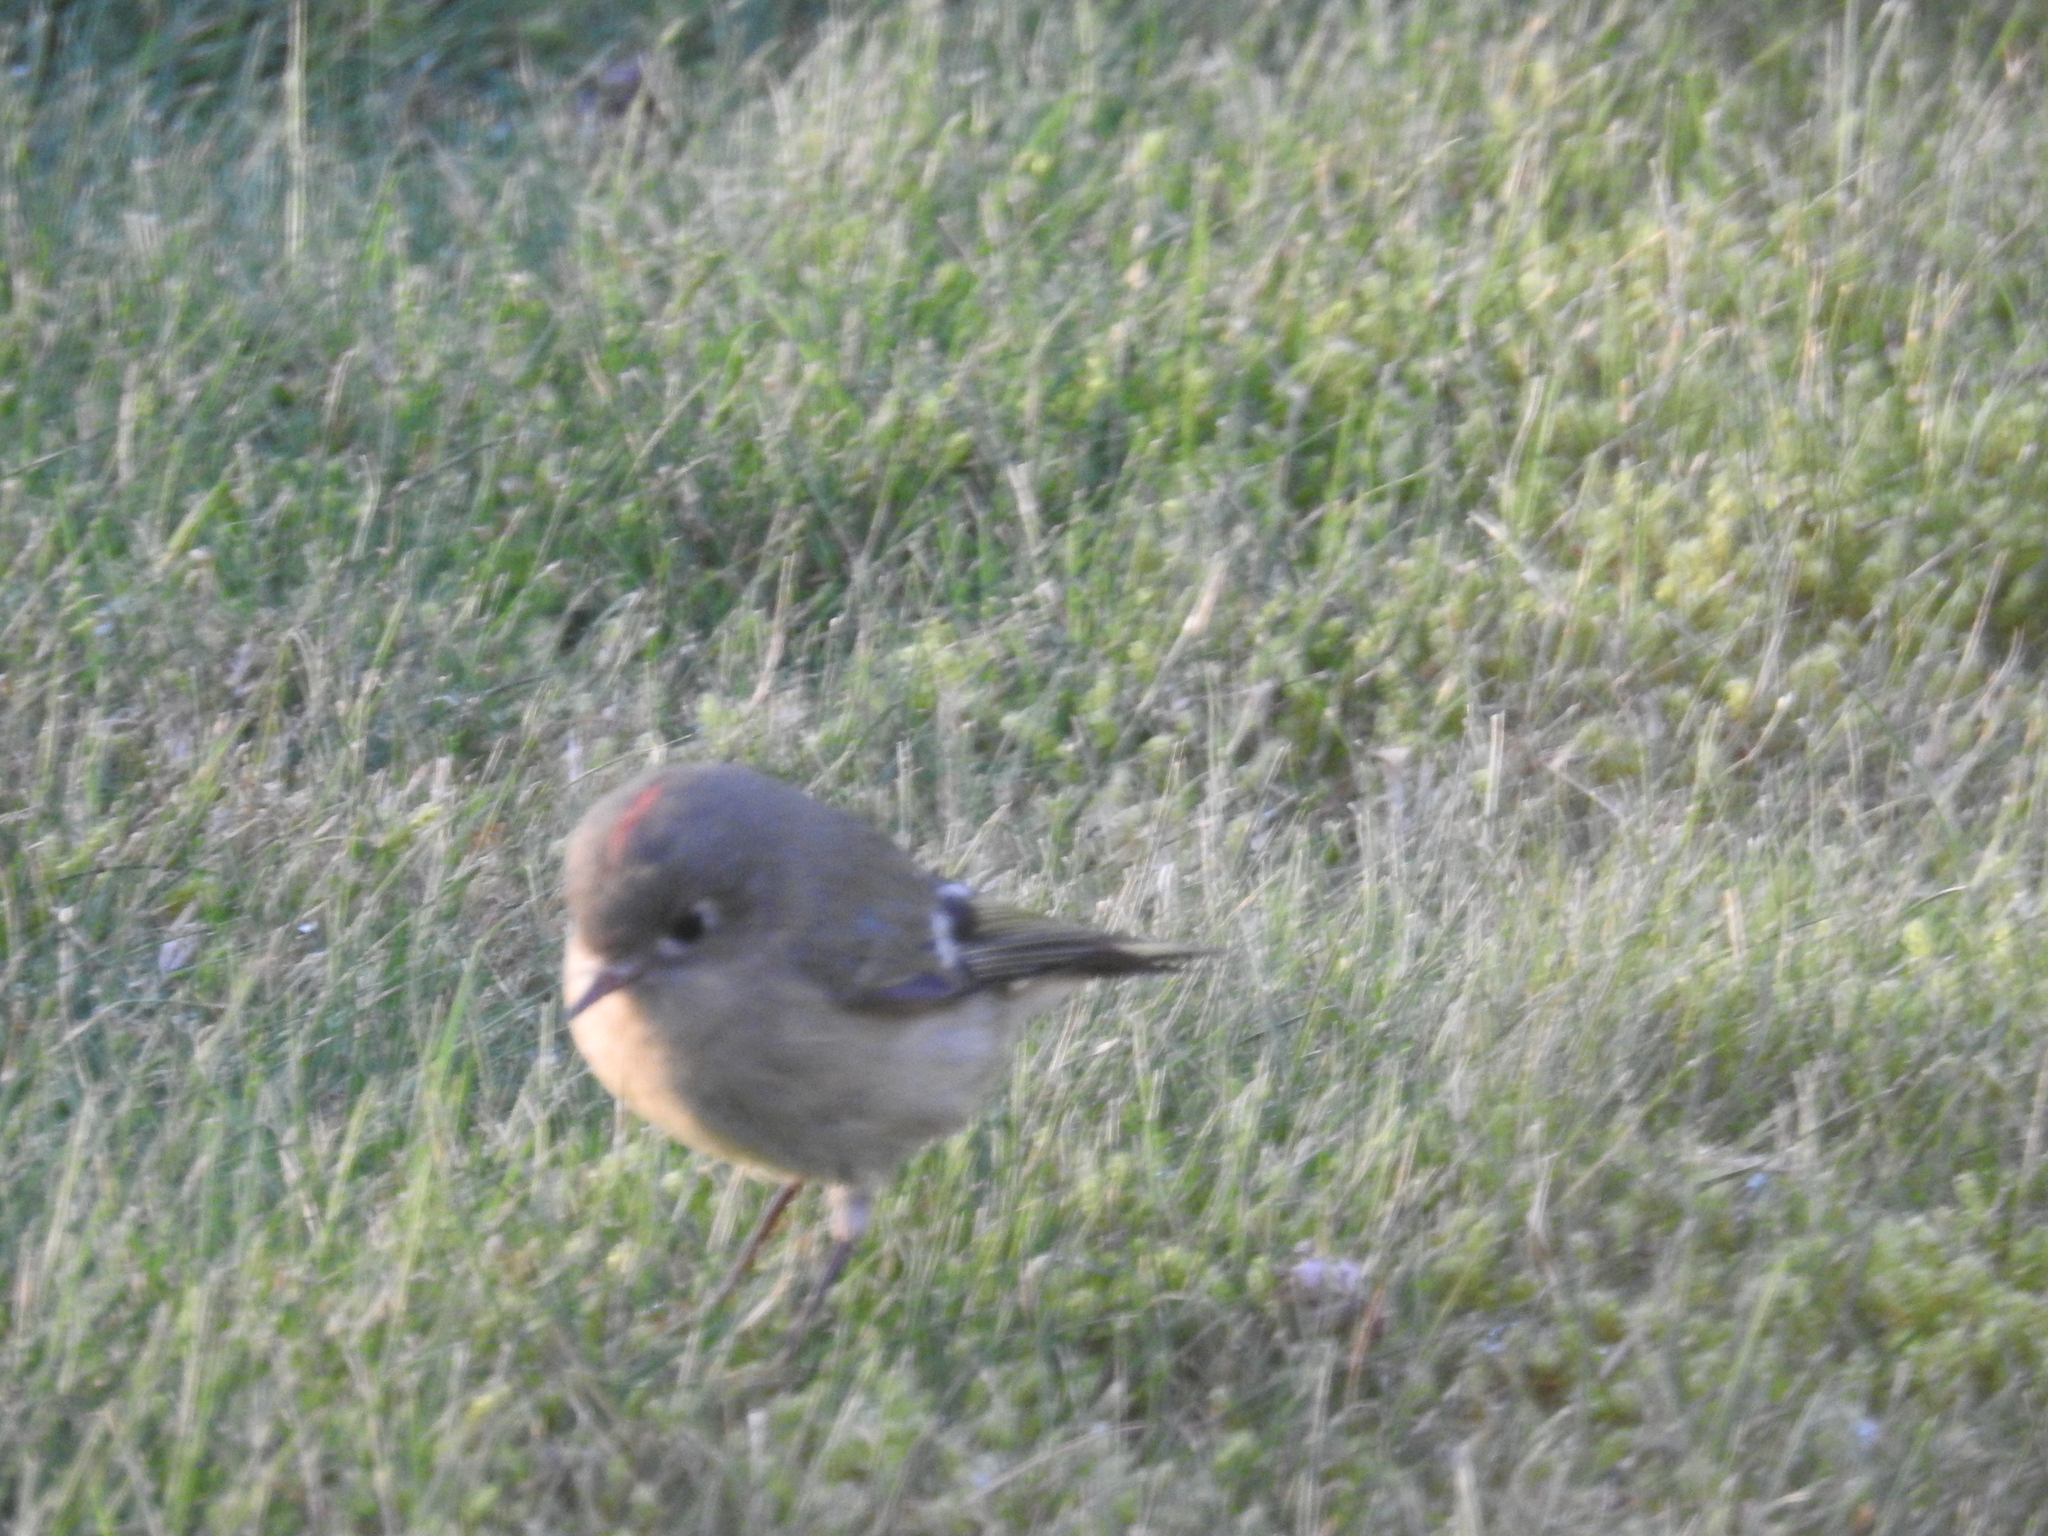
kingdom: Animalia
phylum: Chordata
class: Aves
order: Passeriformes
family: Regulidae
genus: Regulus
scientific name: Regulus calendula
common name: Ruby-crowned kinglet
